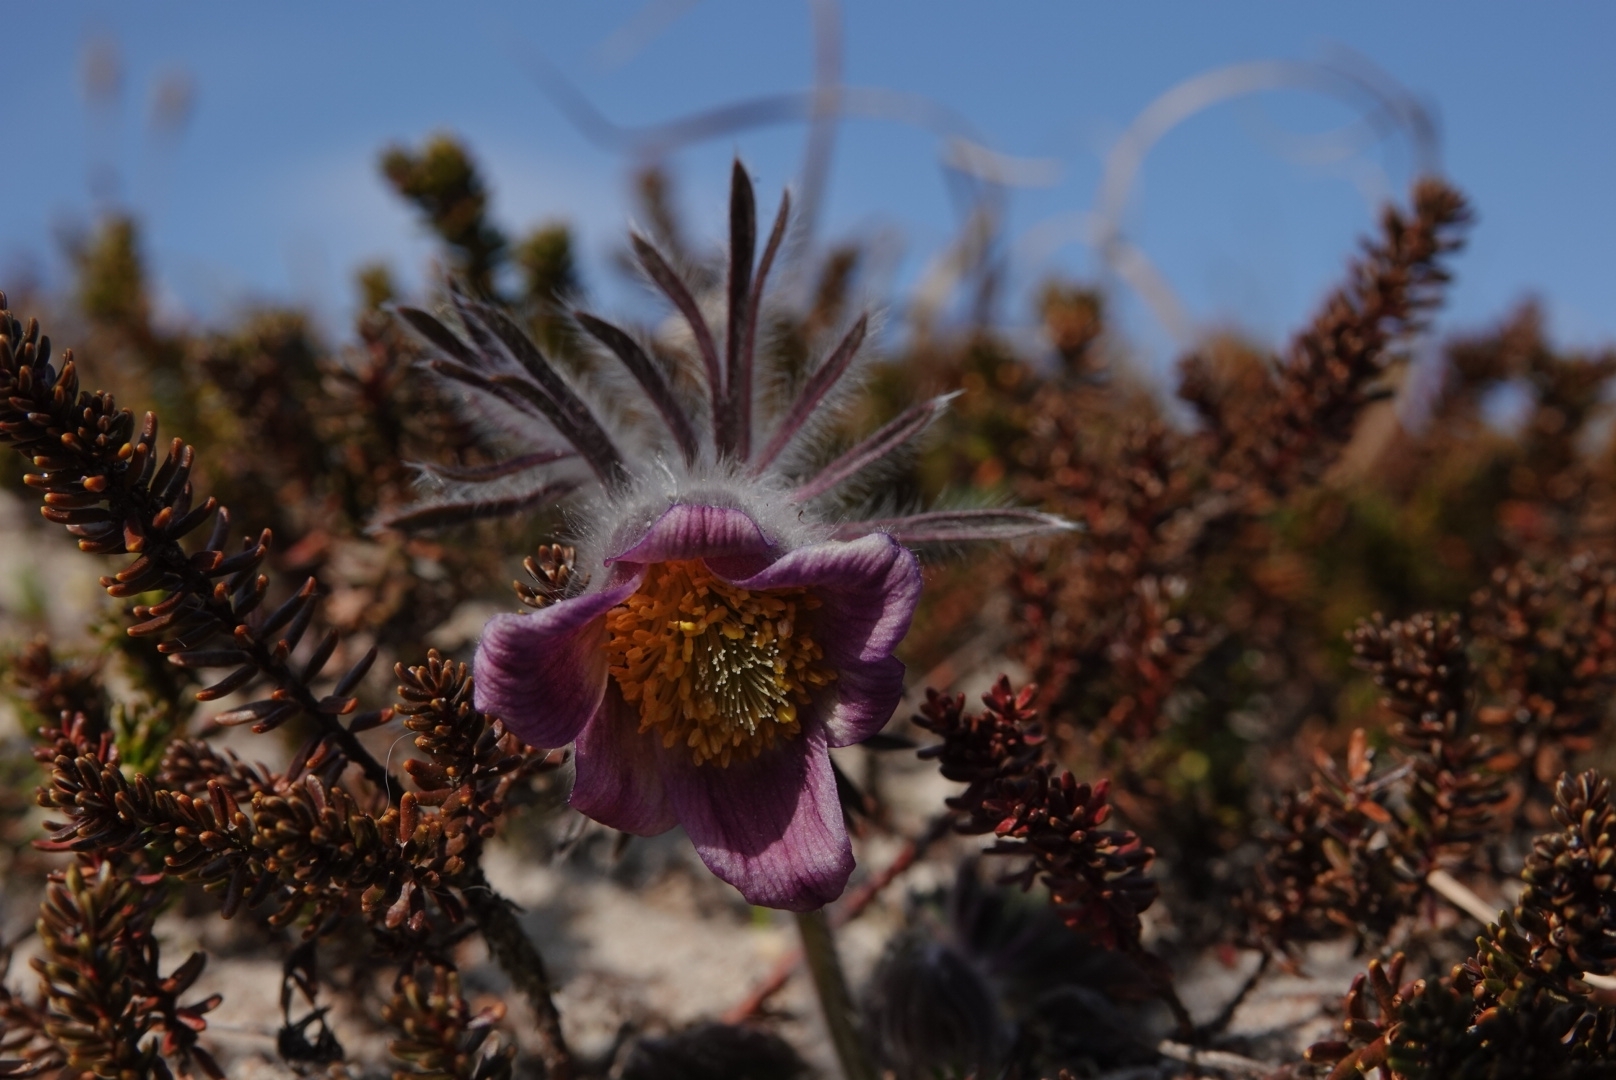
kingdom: Plantae
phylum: Tracheophyta
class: Magnoliopsida
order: Ranunculales
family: Ranunculaceae
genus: Pulsatilla
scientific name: Pulsatilla pratensis
